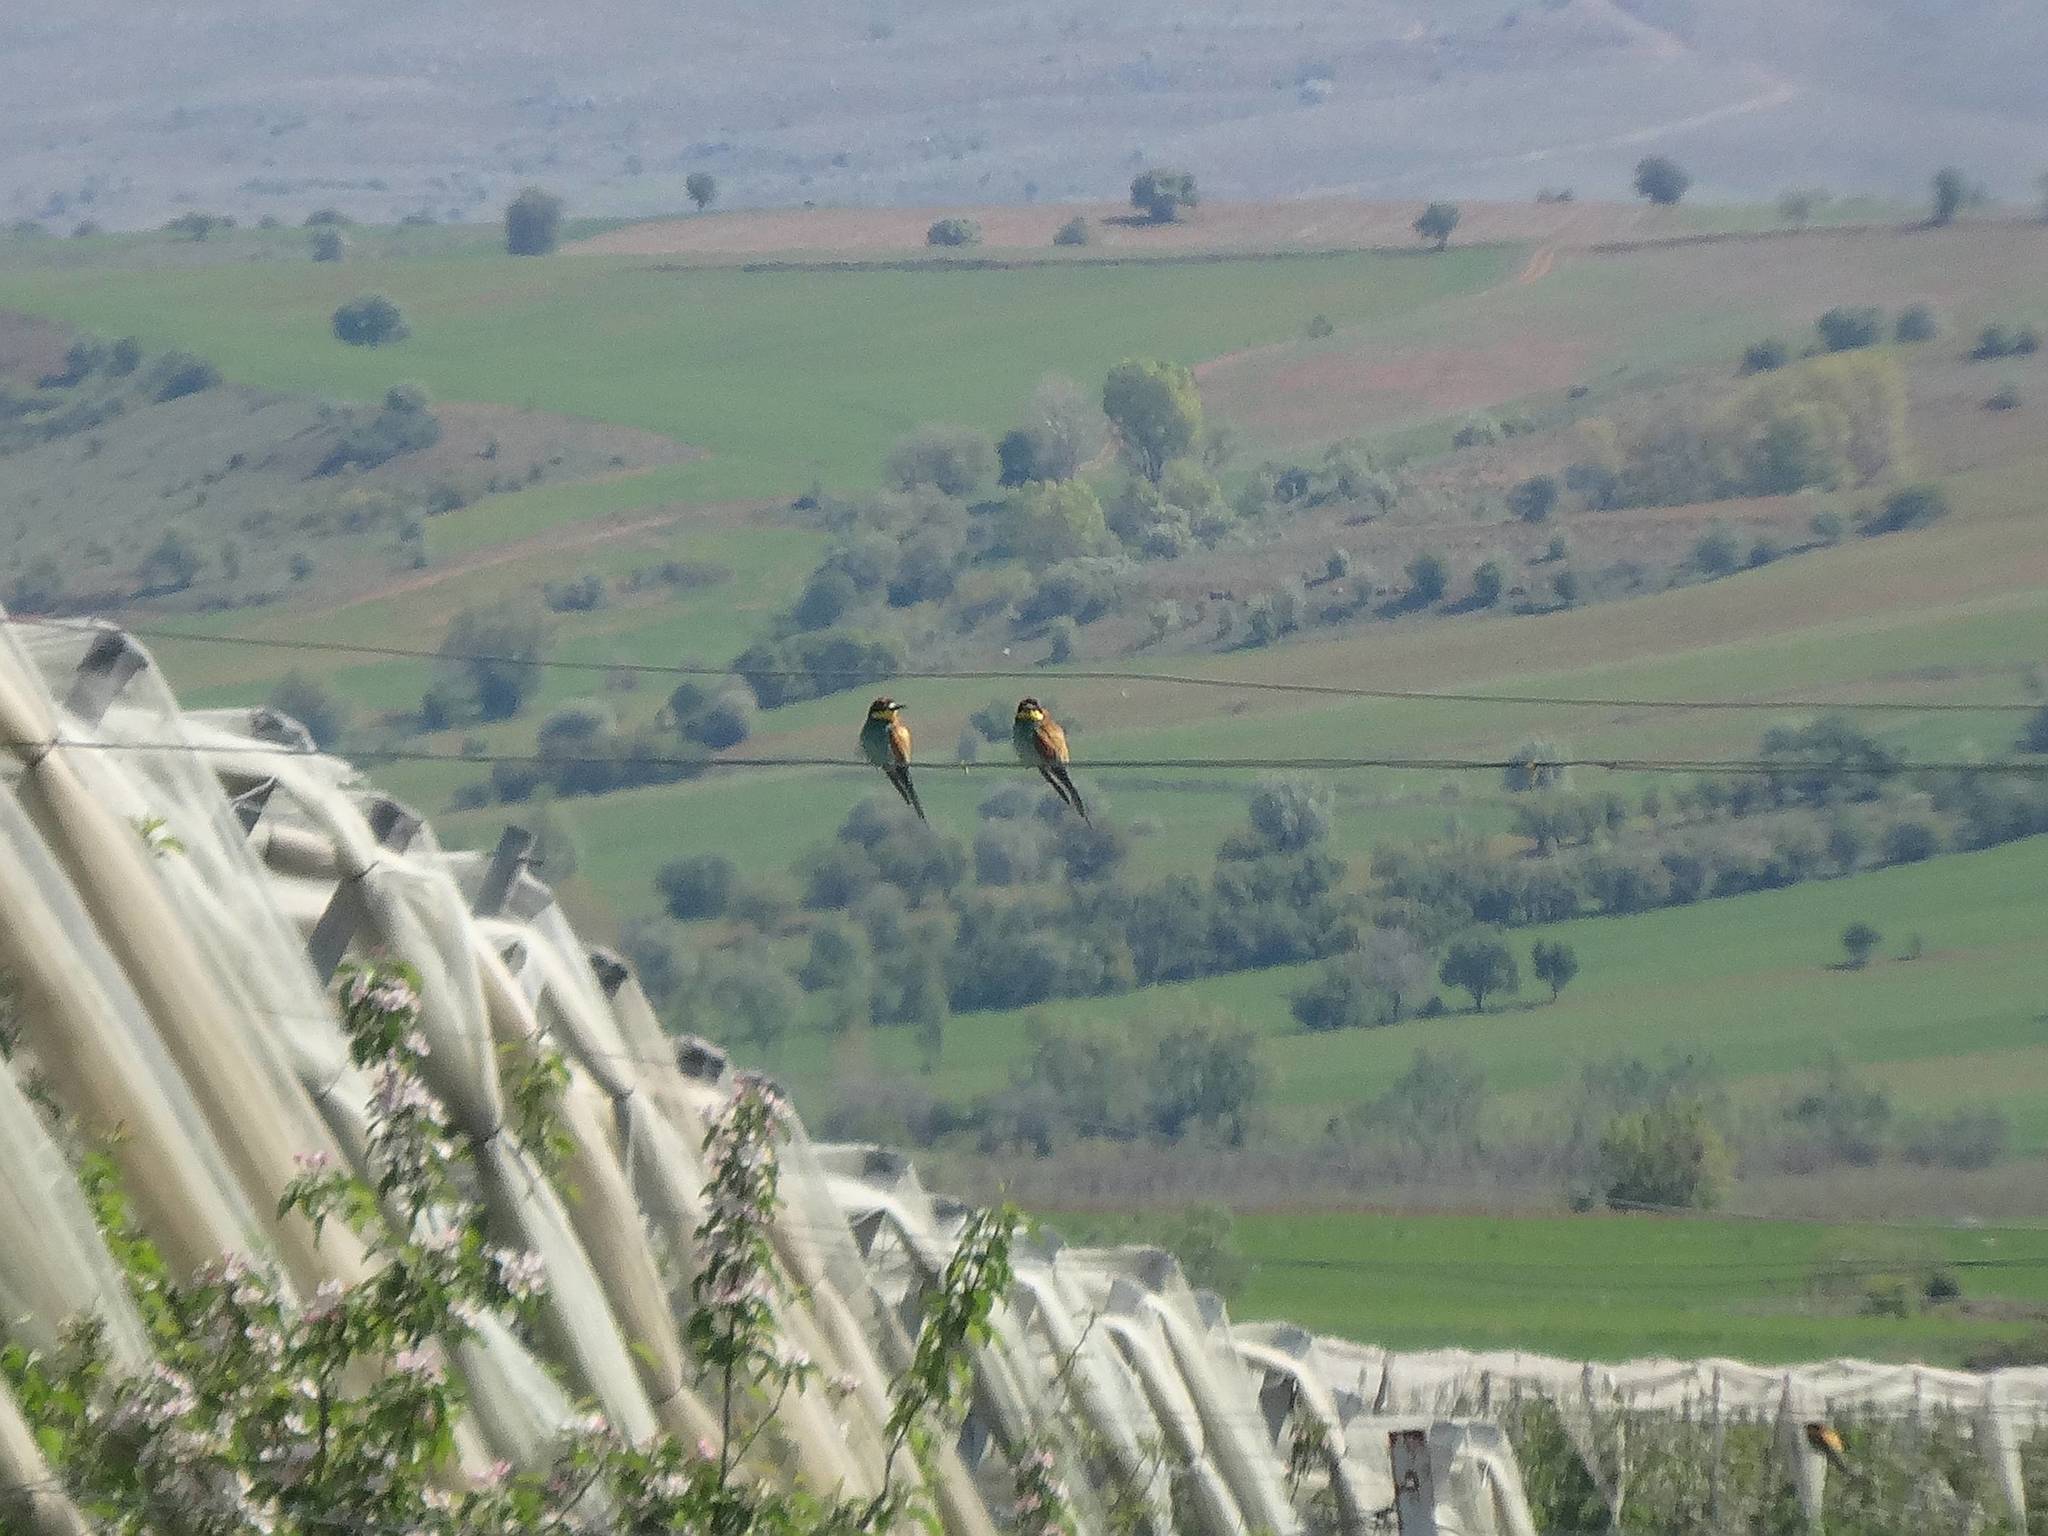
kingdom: Animalia
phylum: Chordata
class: Aves
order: Coraciiformes
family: Meropidae
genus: Merops
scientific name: Merops apiaster
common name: European bee-eater
